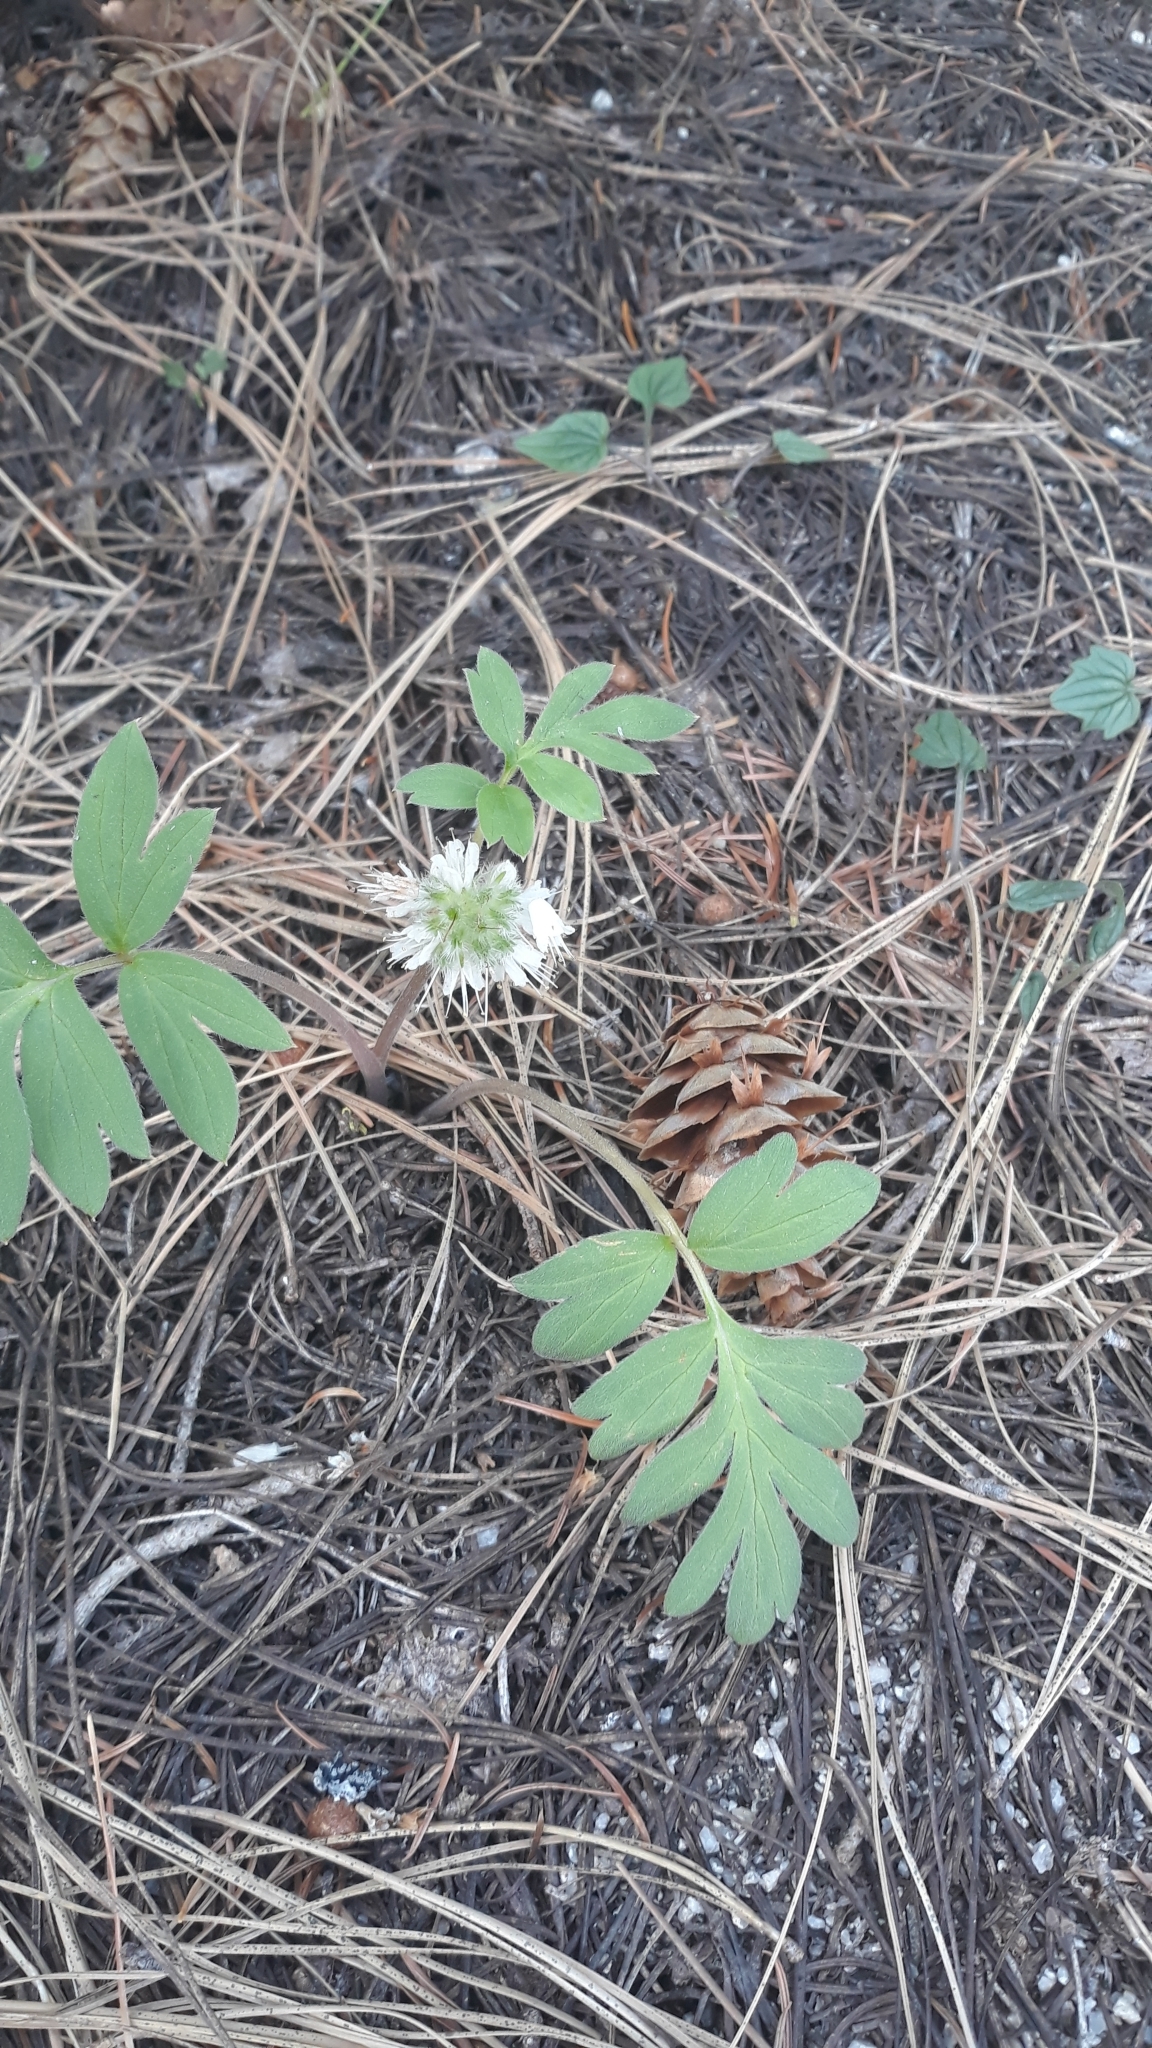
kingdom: Plantae
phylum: Tracheophyta
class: Magnoliopsida
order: Boraginales
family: Hydrophyllaceae
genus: Hydrophyllum
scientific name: Hydrophyllum capitatum
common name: Woollen-breeches
